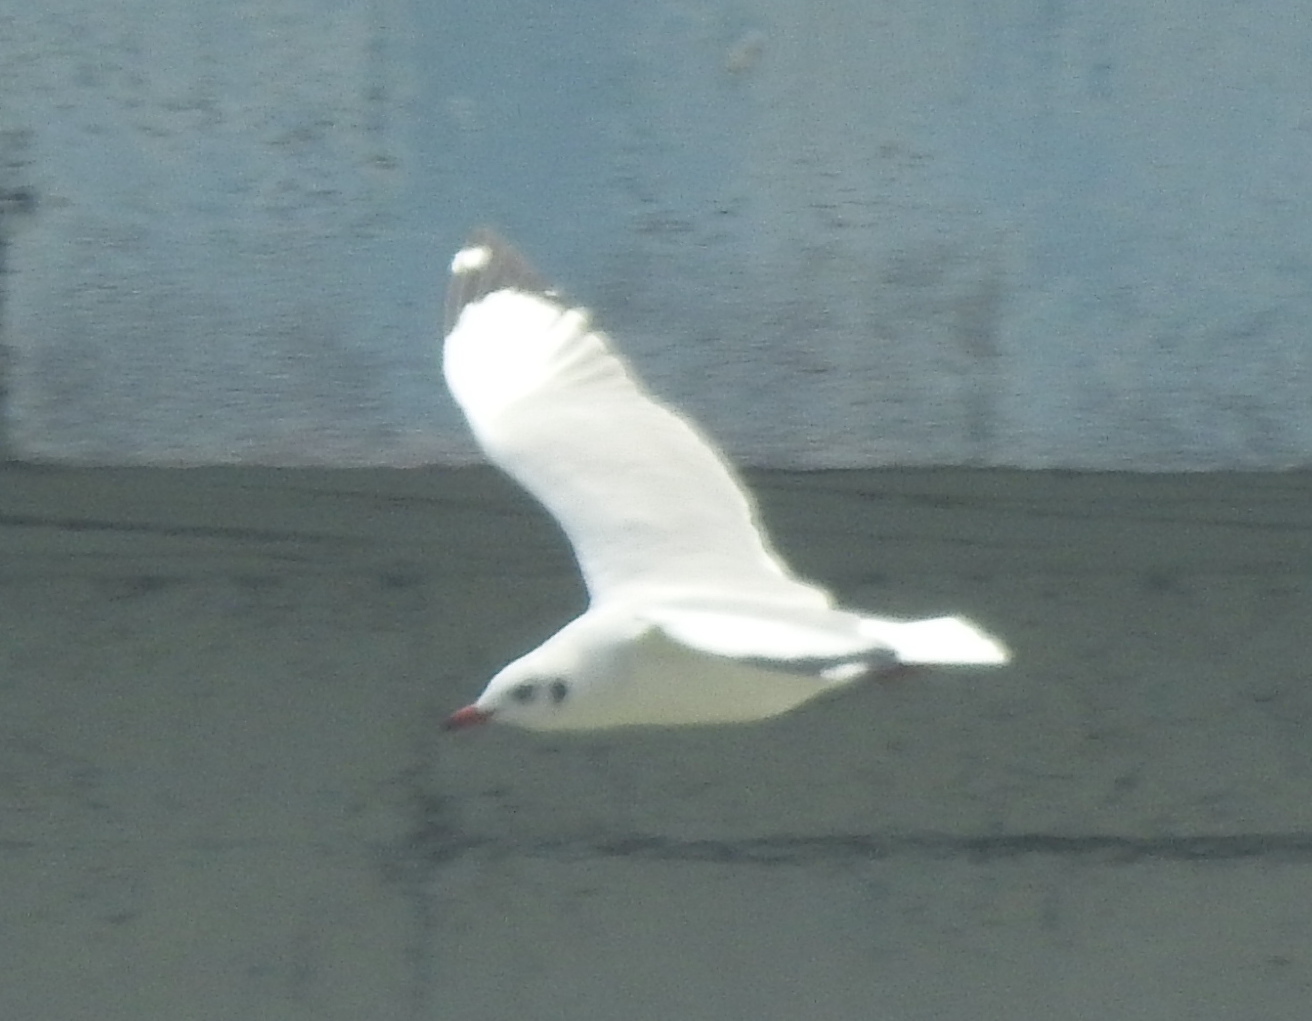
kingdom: Animalia
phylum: Chordata
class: Aves
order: Charadriiformes
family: Laridae
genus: Chroicocephalus
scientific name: Chroicocephalus brunnicephalus
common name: Brown-headed gull
